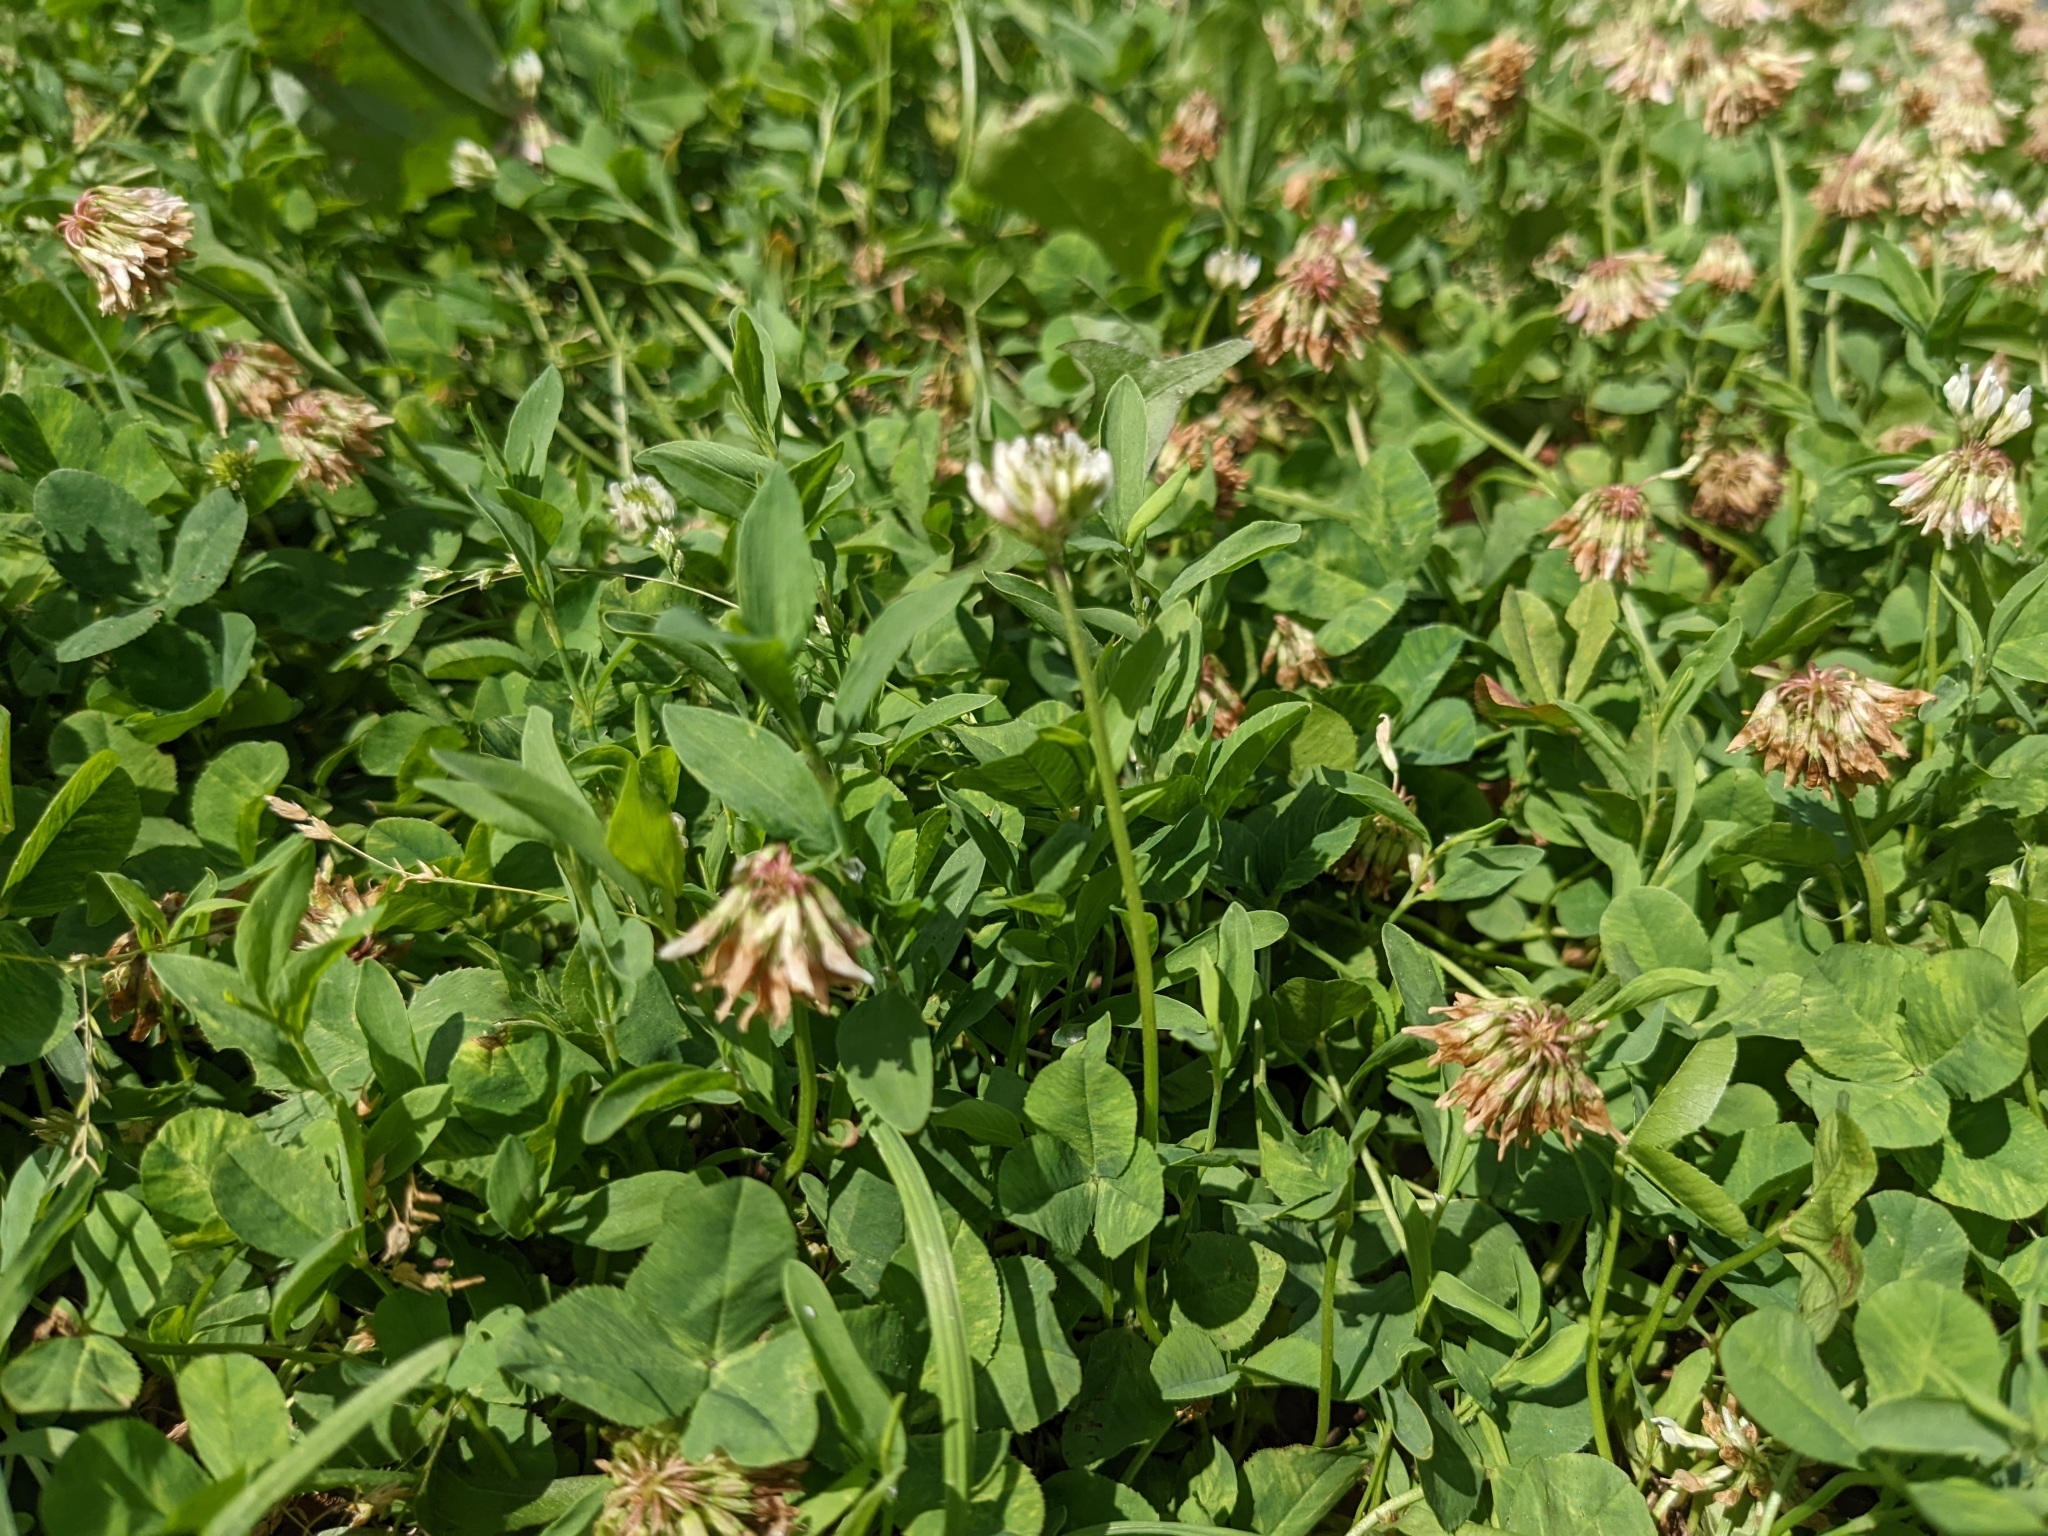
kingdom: Plantae
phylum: Tracheophyta
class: Magnoliopsida
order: Fabales
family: Fabaceae
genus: Trifolium
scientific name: Trifolium repens
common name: White clover
